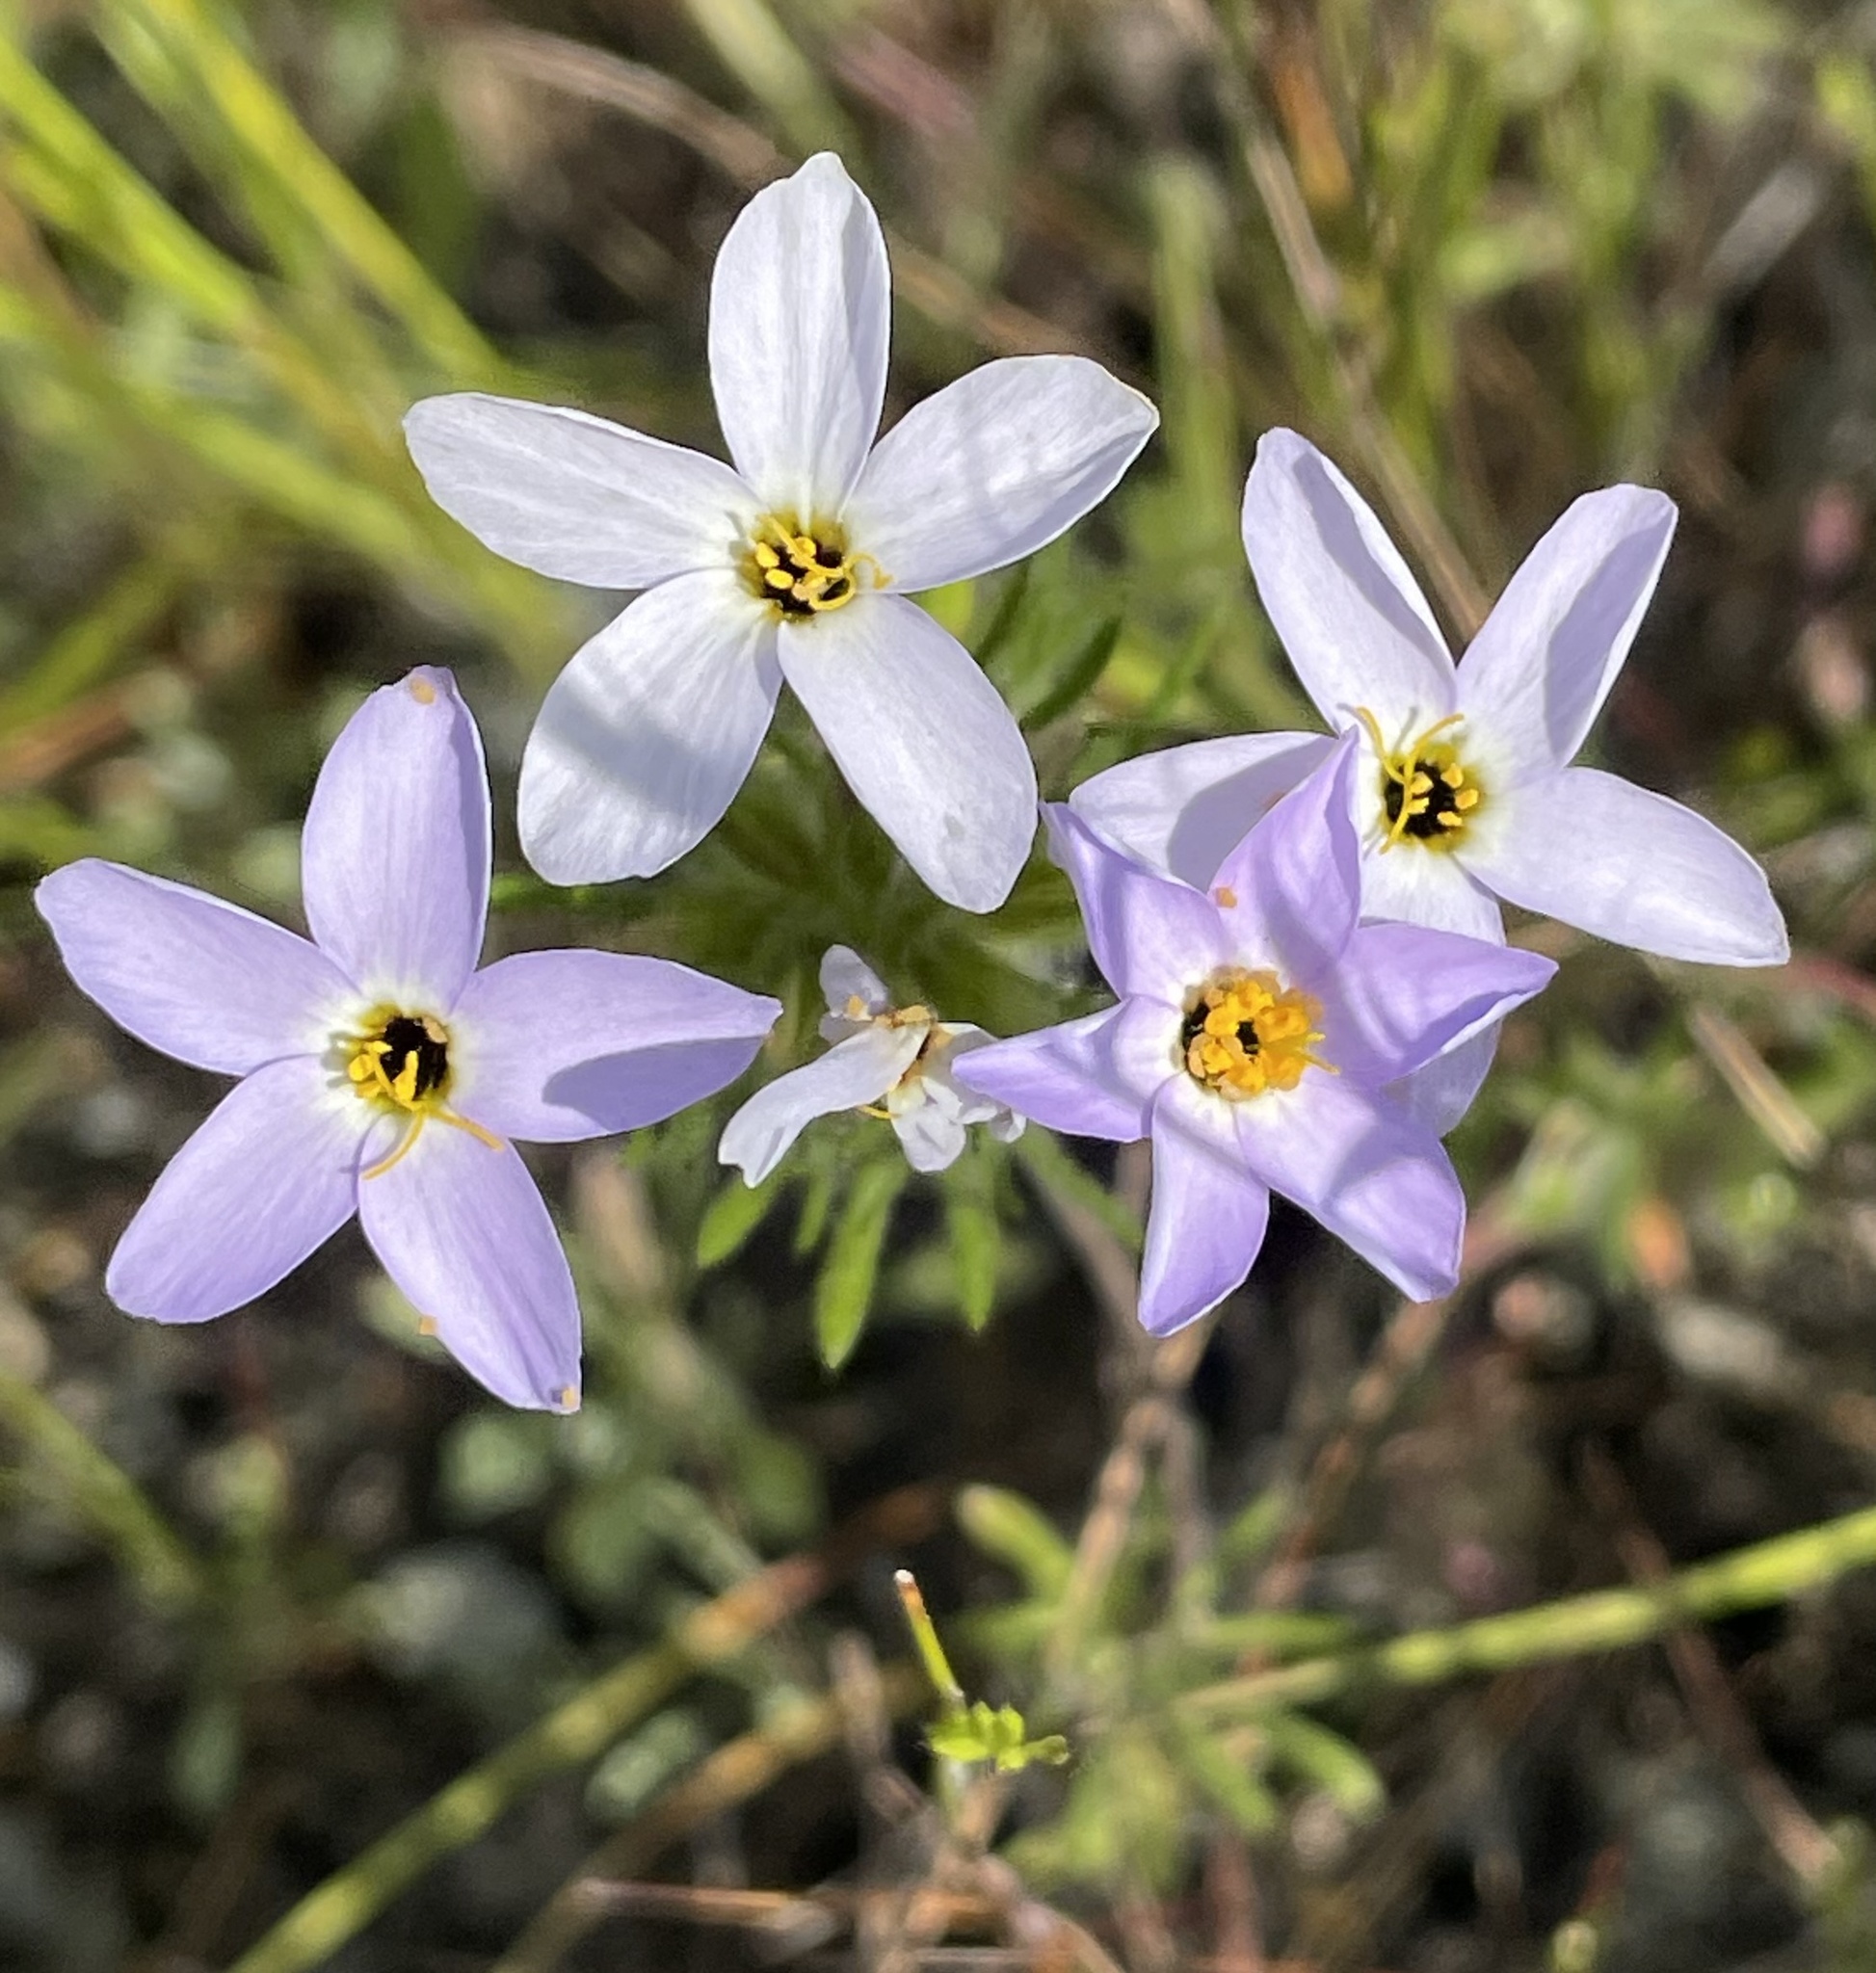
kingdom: Plantae
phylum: Tracheophyta
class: Magnoliopsida
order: Ericales
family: Polemoniaceae
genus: Leptosiphon
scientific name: Leptosiphon androsaceus
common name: False babystars
